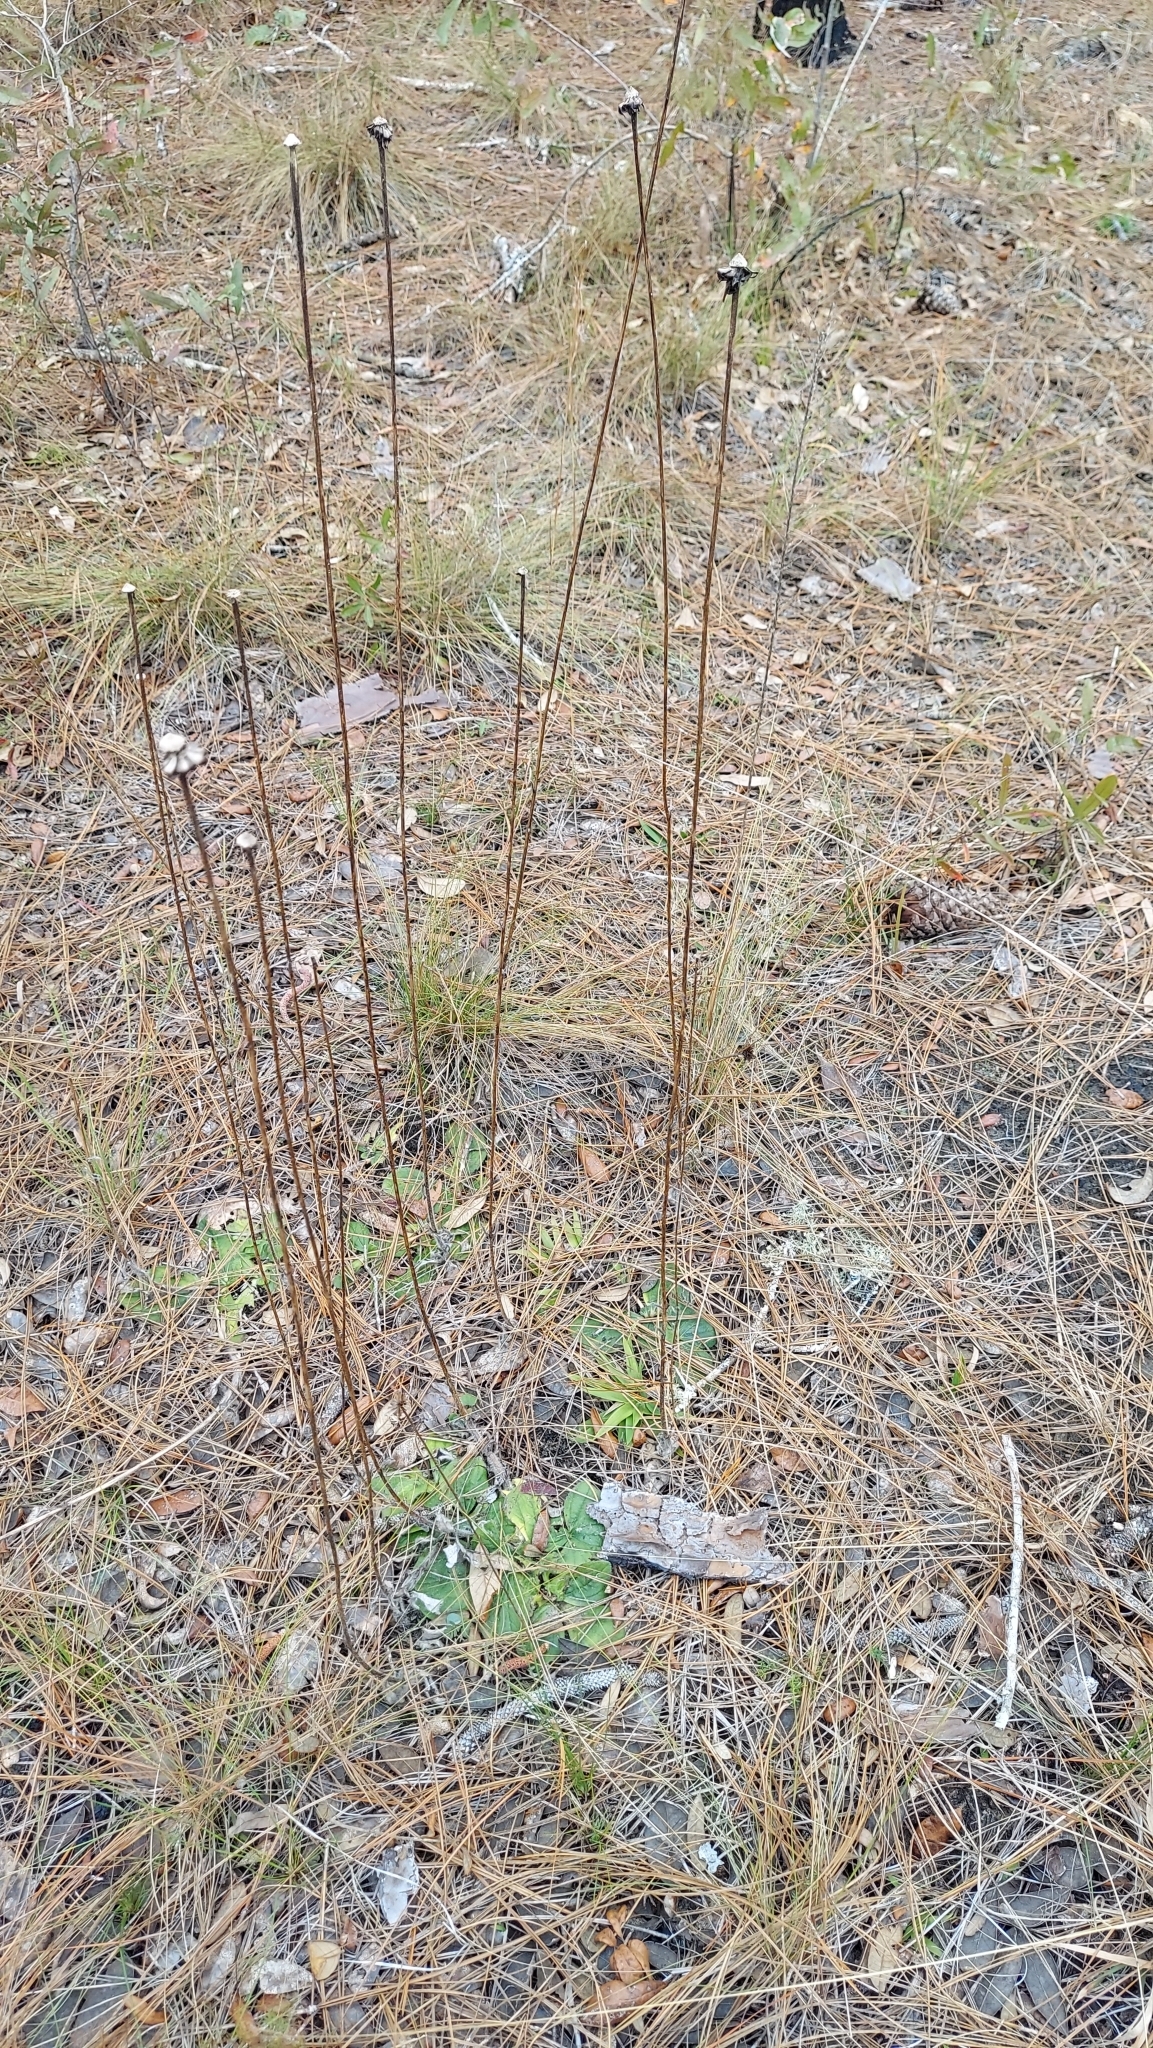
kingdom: Plantae
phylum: Tracheophyta
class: Magnoliopsida
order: Asterales
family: Asteraceae
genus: Helianthus
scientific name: Helianthus radula
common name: Pineland sunflower
